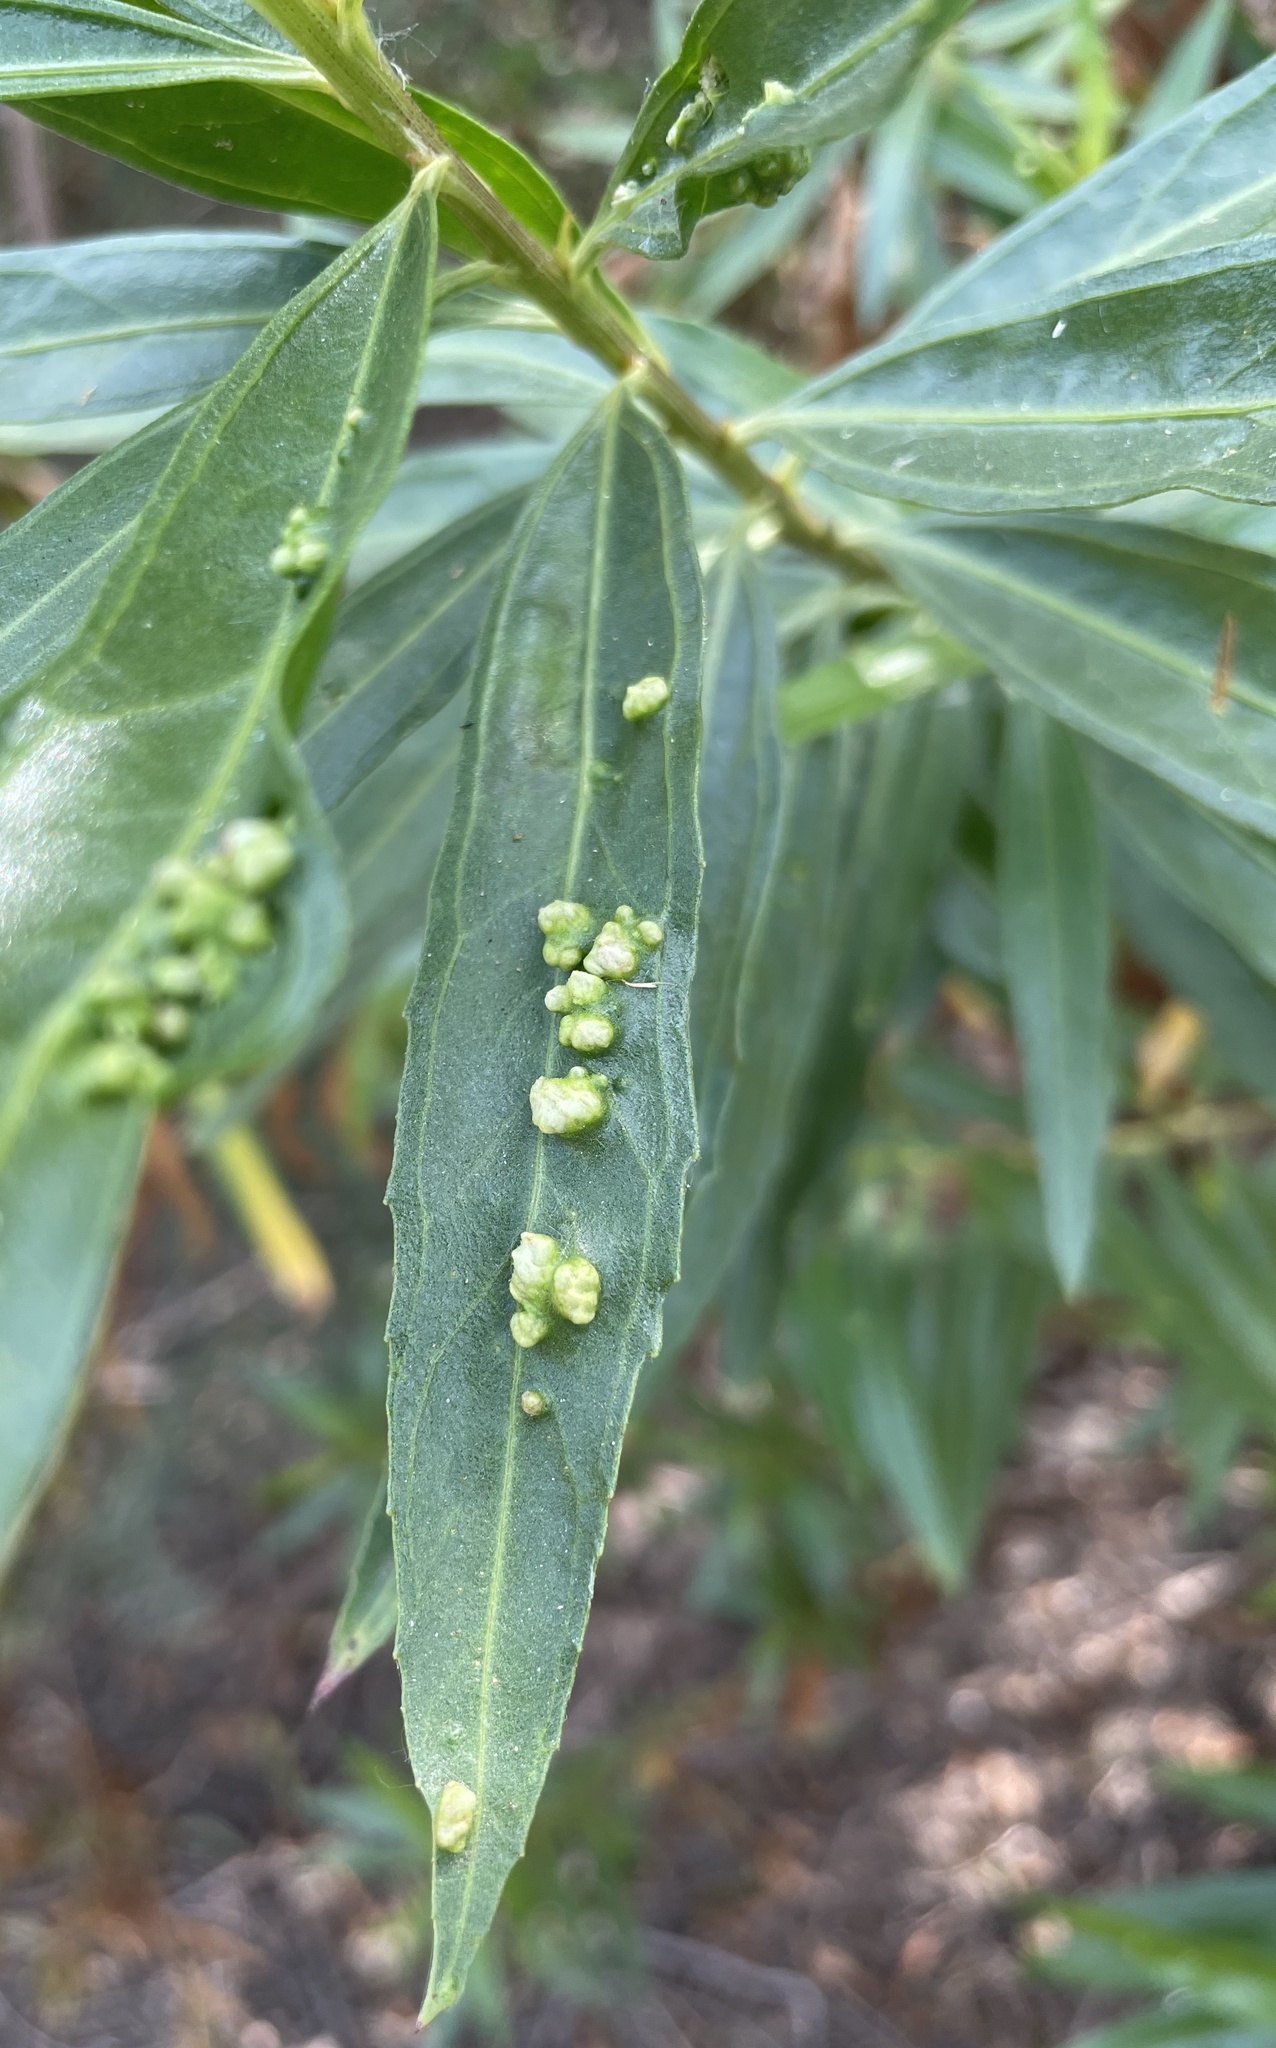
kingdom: Animalia
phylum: Arthropoda
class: Arachnida
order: Trombidiformes
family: Eriophyidae
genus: Aceria
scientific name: Aceria
